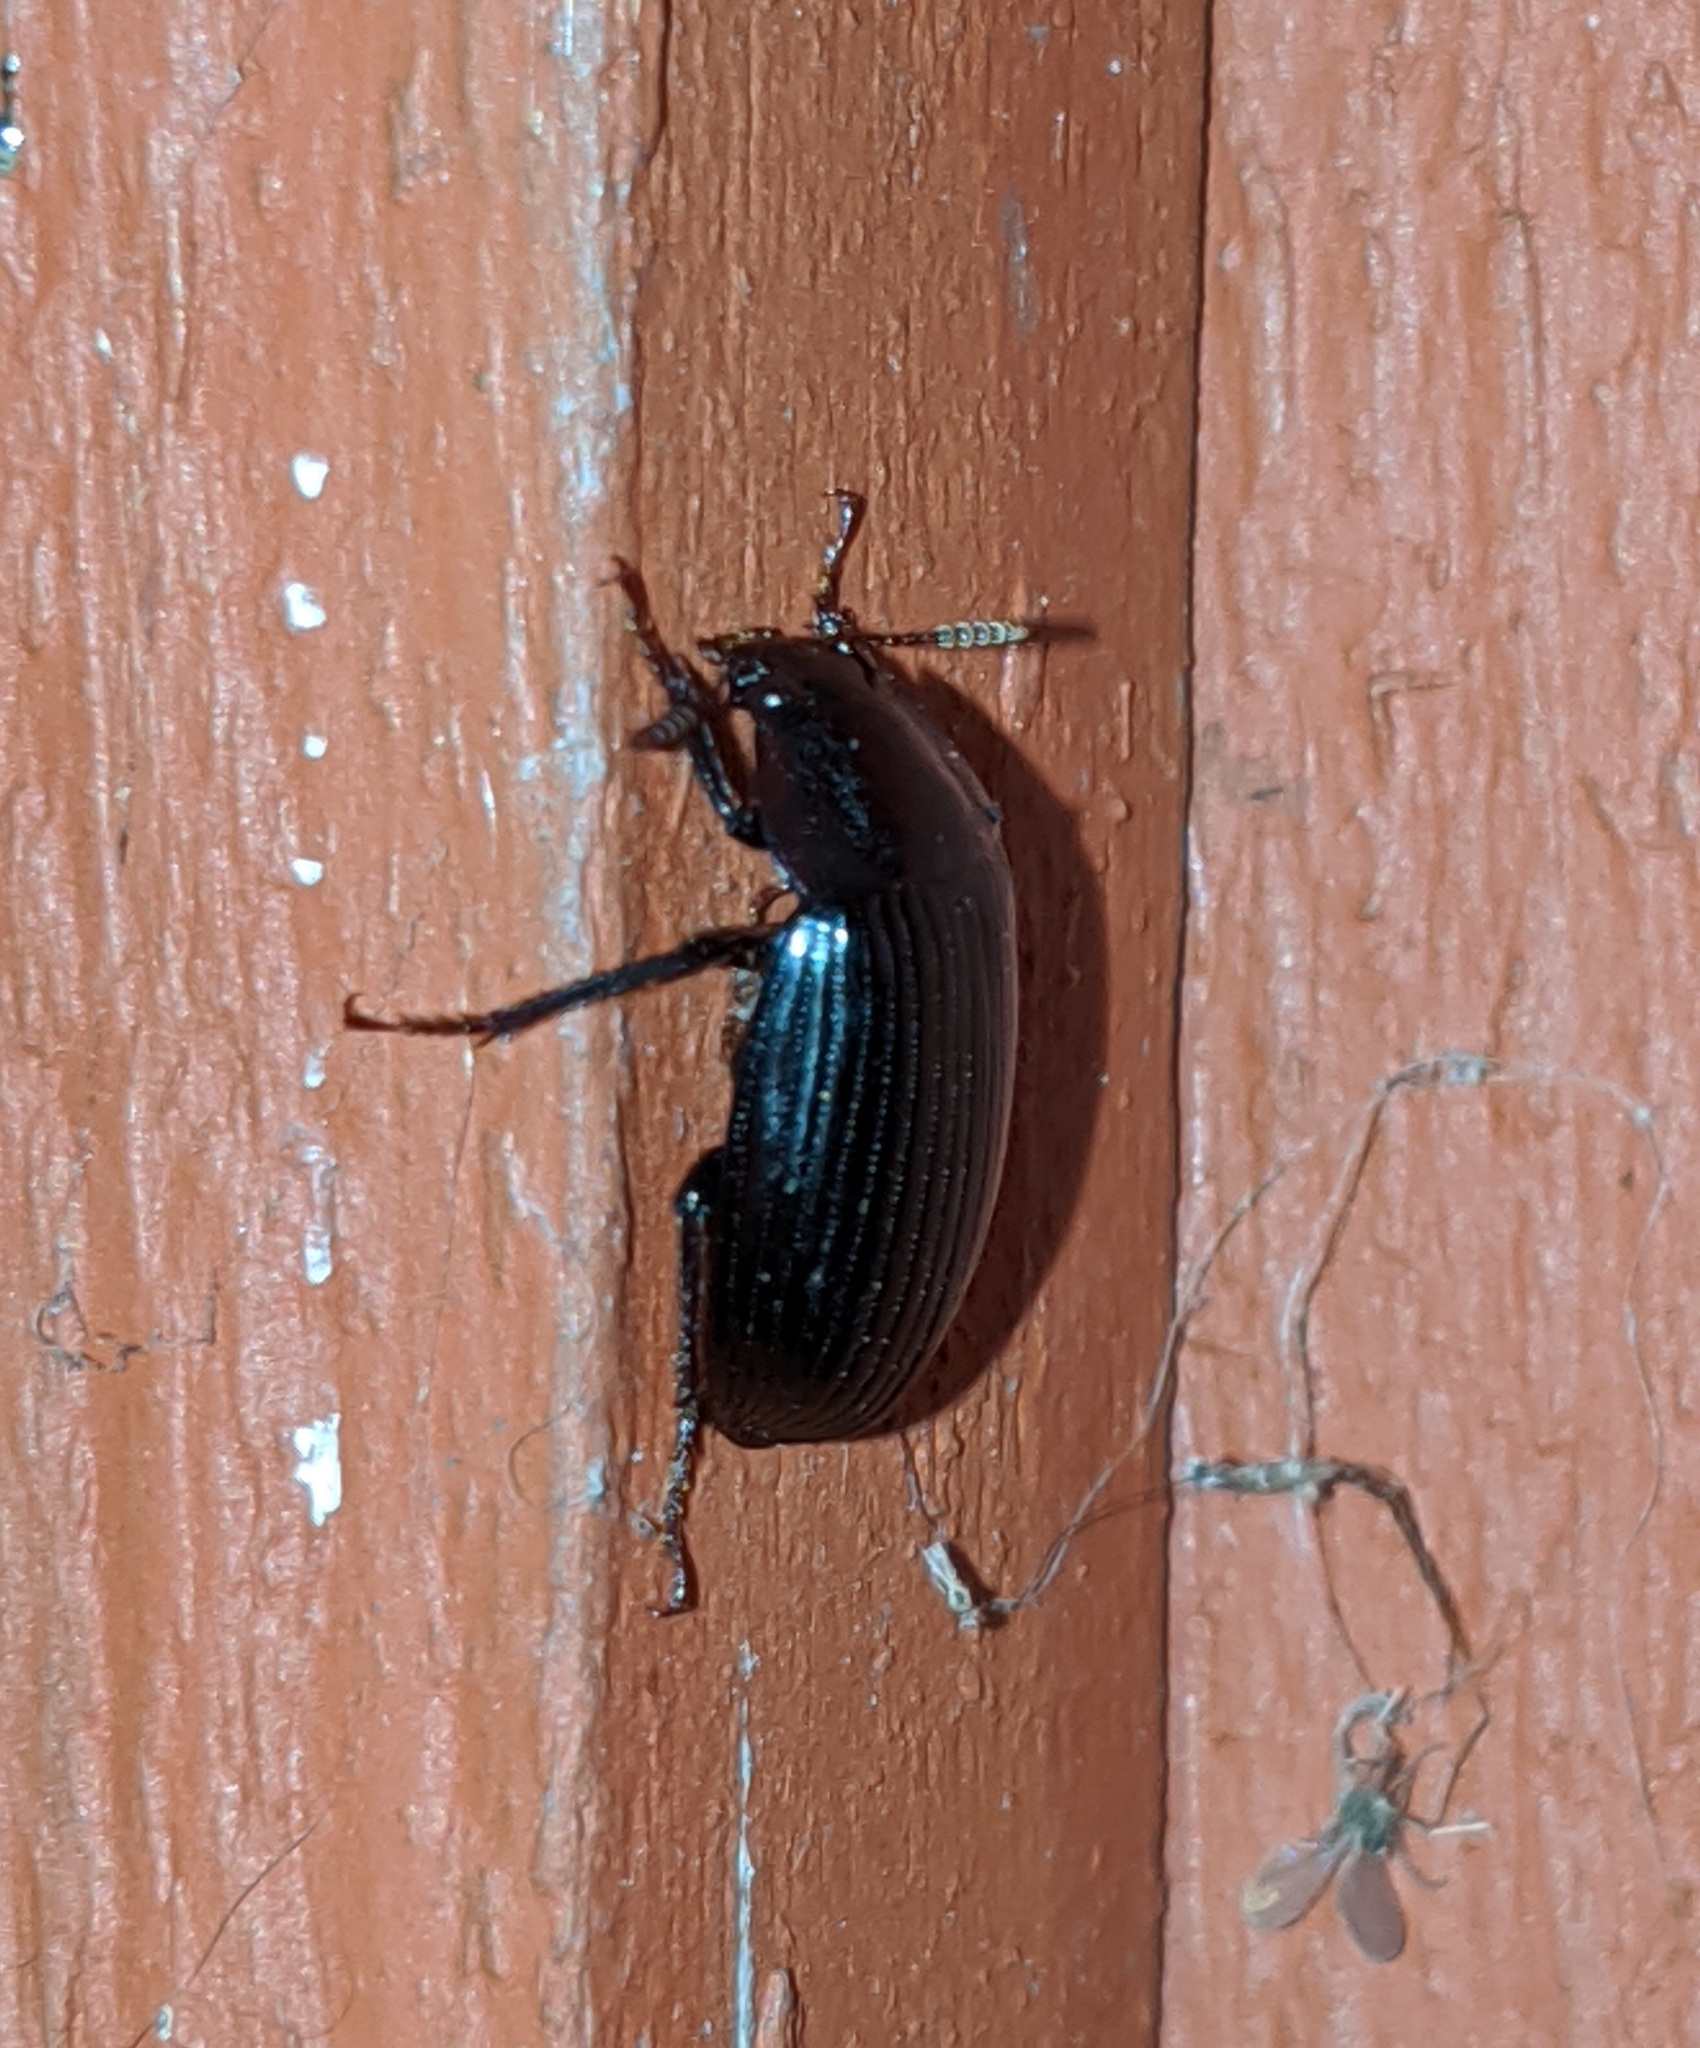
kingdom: Animalia
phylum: Arthropoda
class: Insecta
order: Coleoptera
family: Agyrtidae
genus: Necrophilus
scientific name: Necrophilus hydrophiloides
